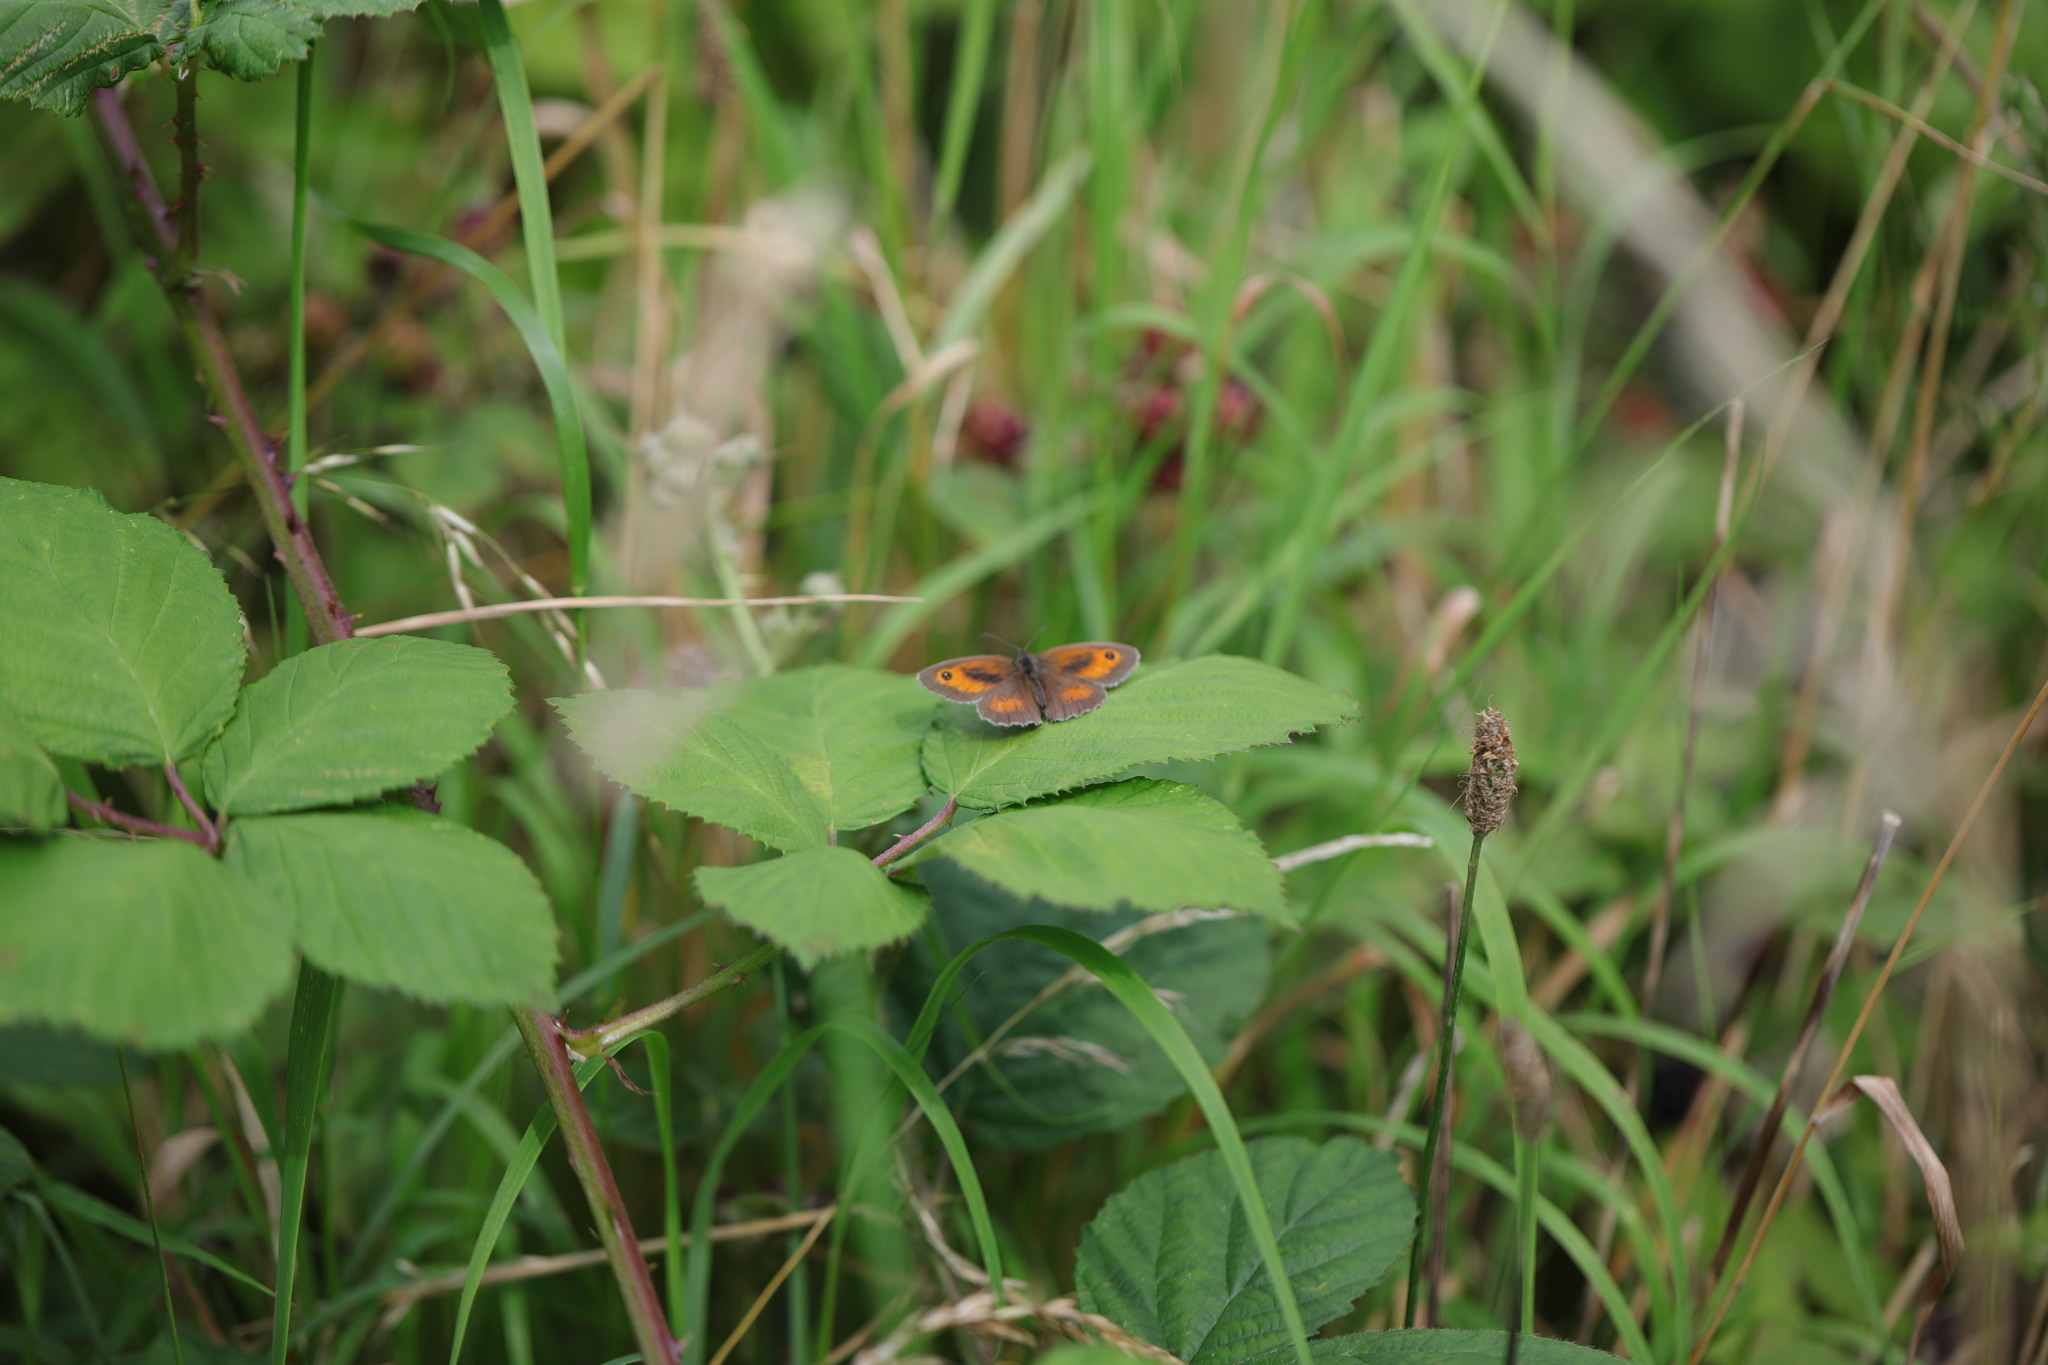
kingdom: Animalia
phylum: Arthropoda
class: Insecta
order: Lepidoptera
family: Nymphalidae
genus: Pyronia
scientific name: Pyronia tithonus
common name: Gatekeeper
